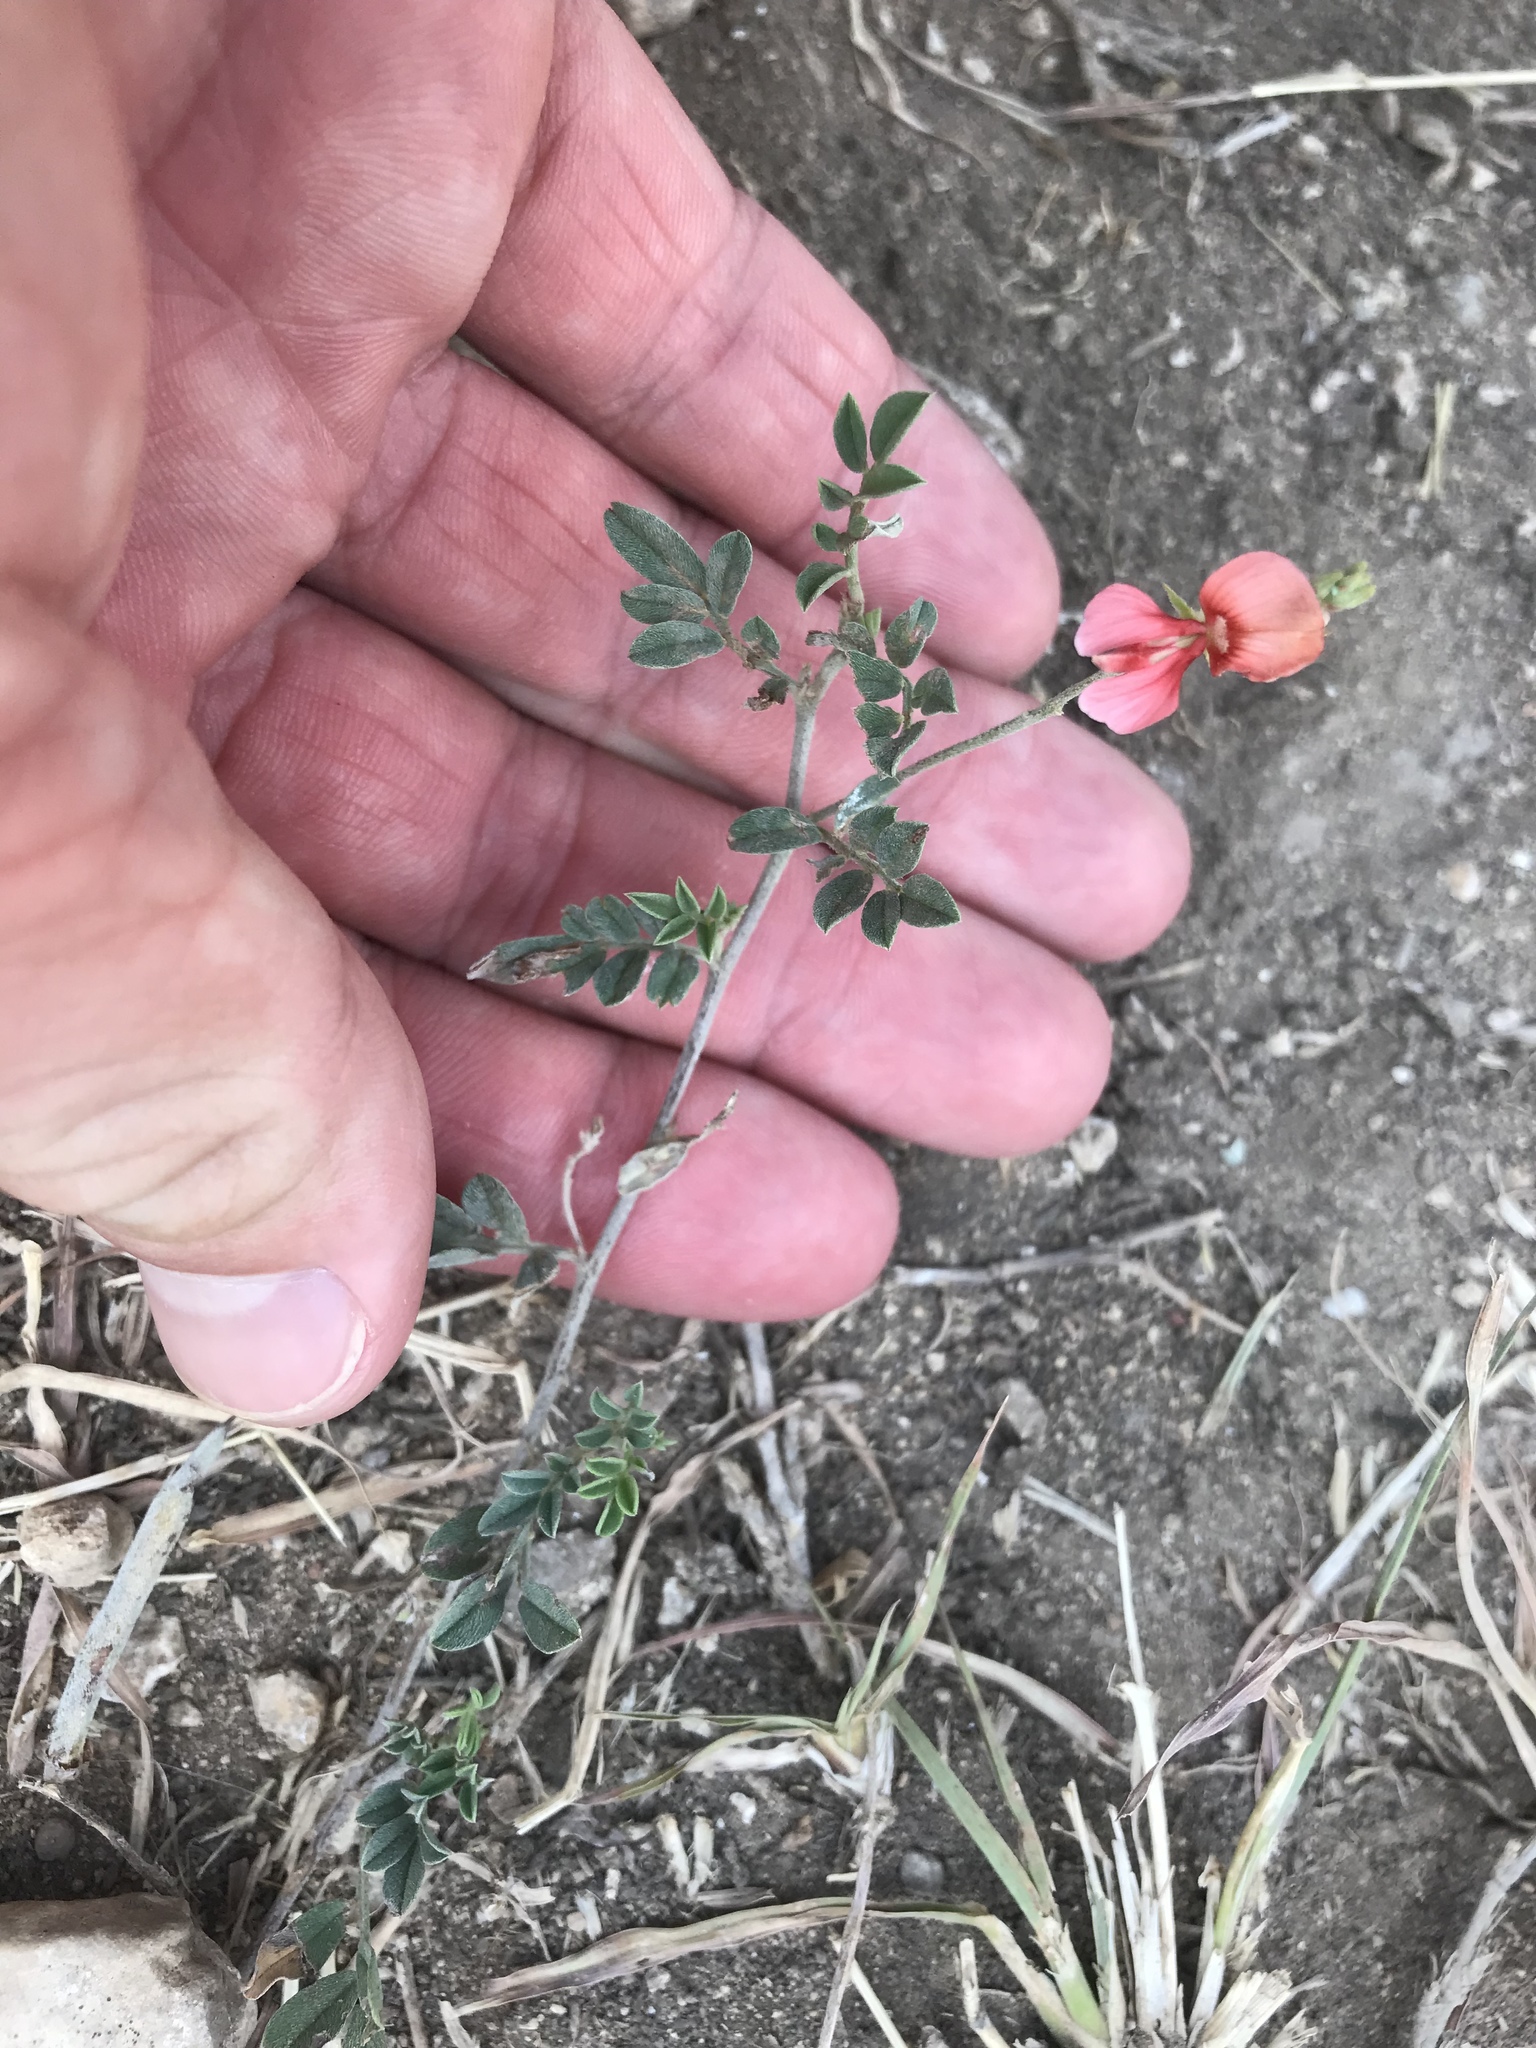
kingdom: Plantae
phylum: Tracheophyta
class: Magnoliopsida
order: Fabales
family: Fabaceae
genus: Indigofera
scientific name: Indigofera miniata
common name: Coast indigo
